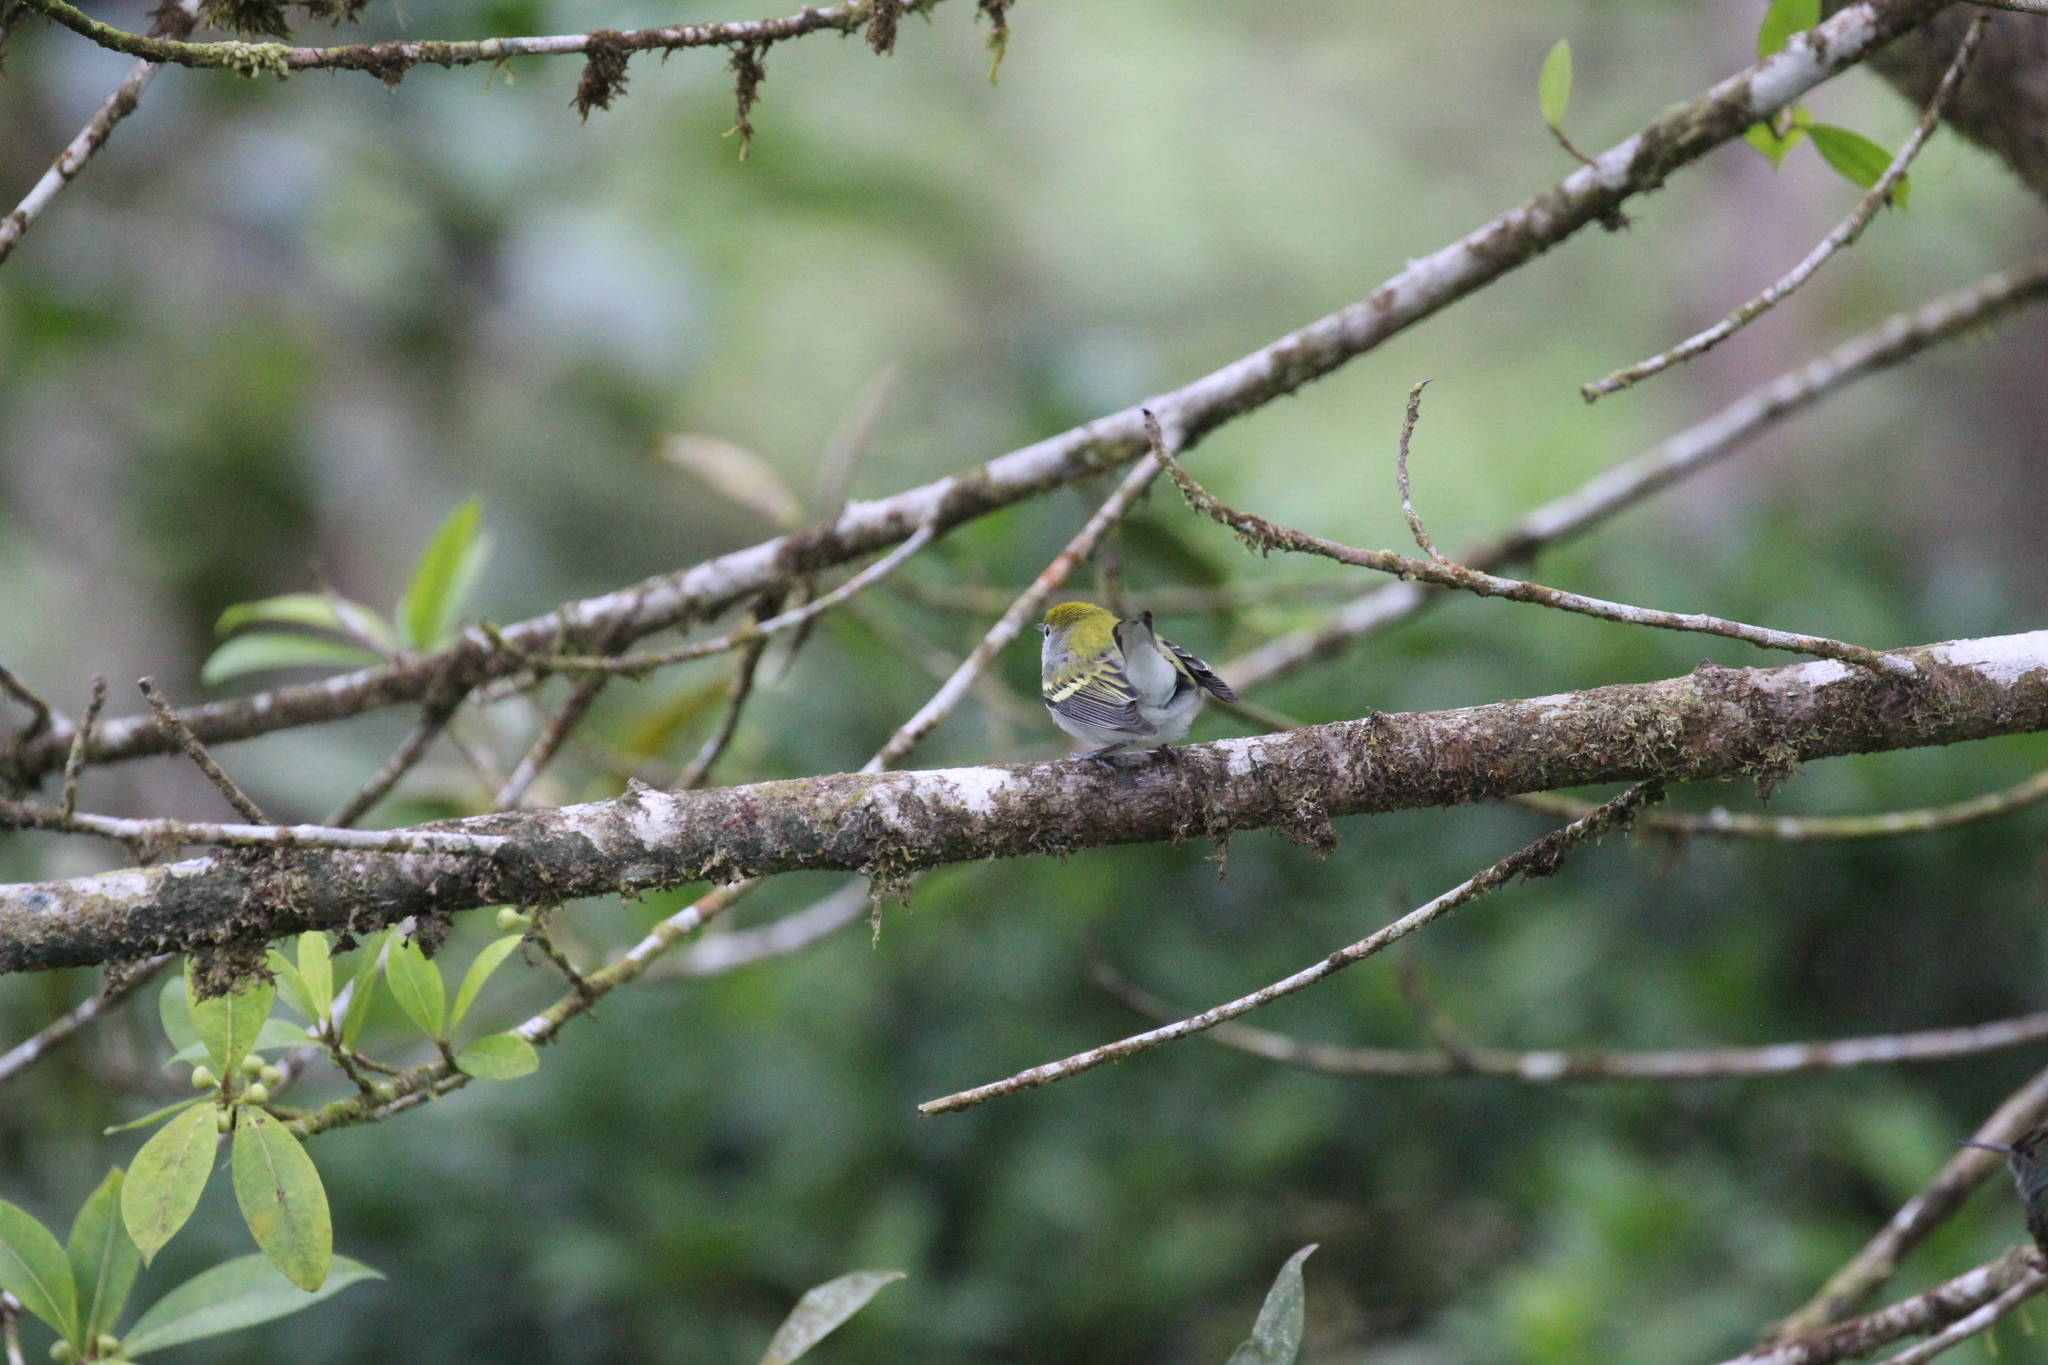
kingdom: Animalia
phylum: Chordata
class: Aves
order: Passeriformes
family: Parulidae
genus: Setophaga
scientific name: Setophaga pensylvanica
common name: Chestnut-sided warbler
